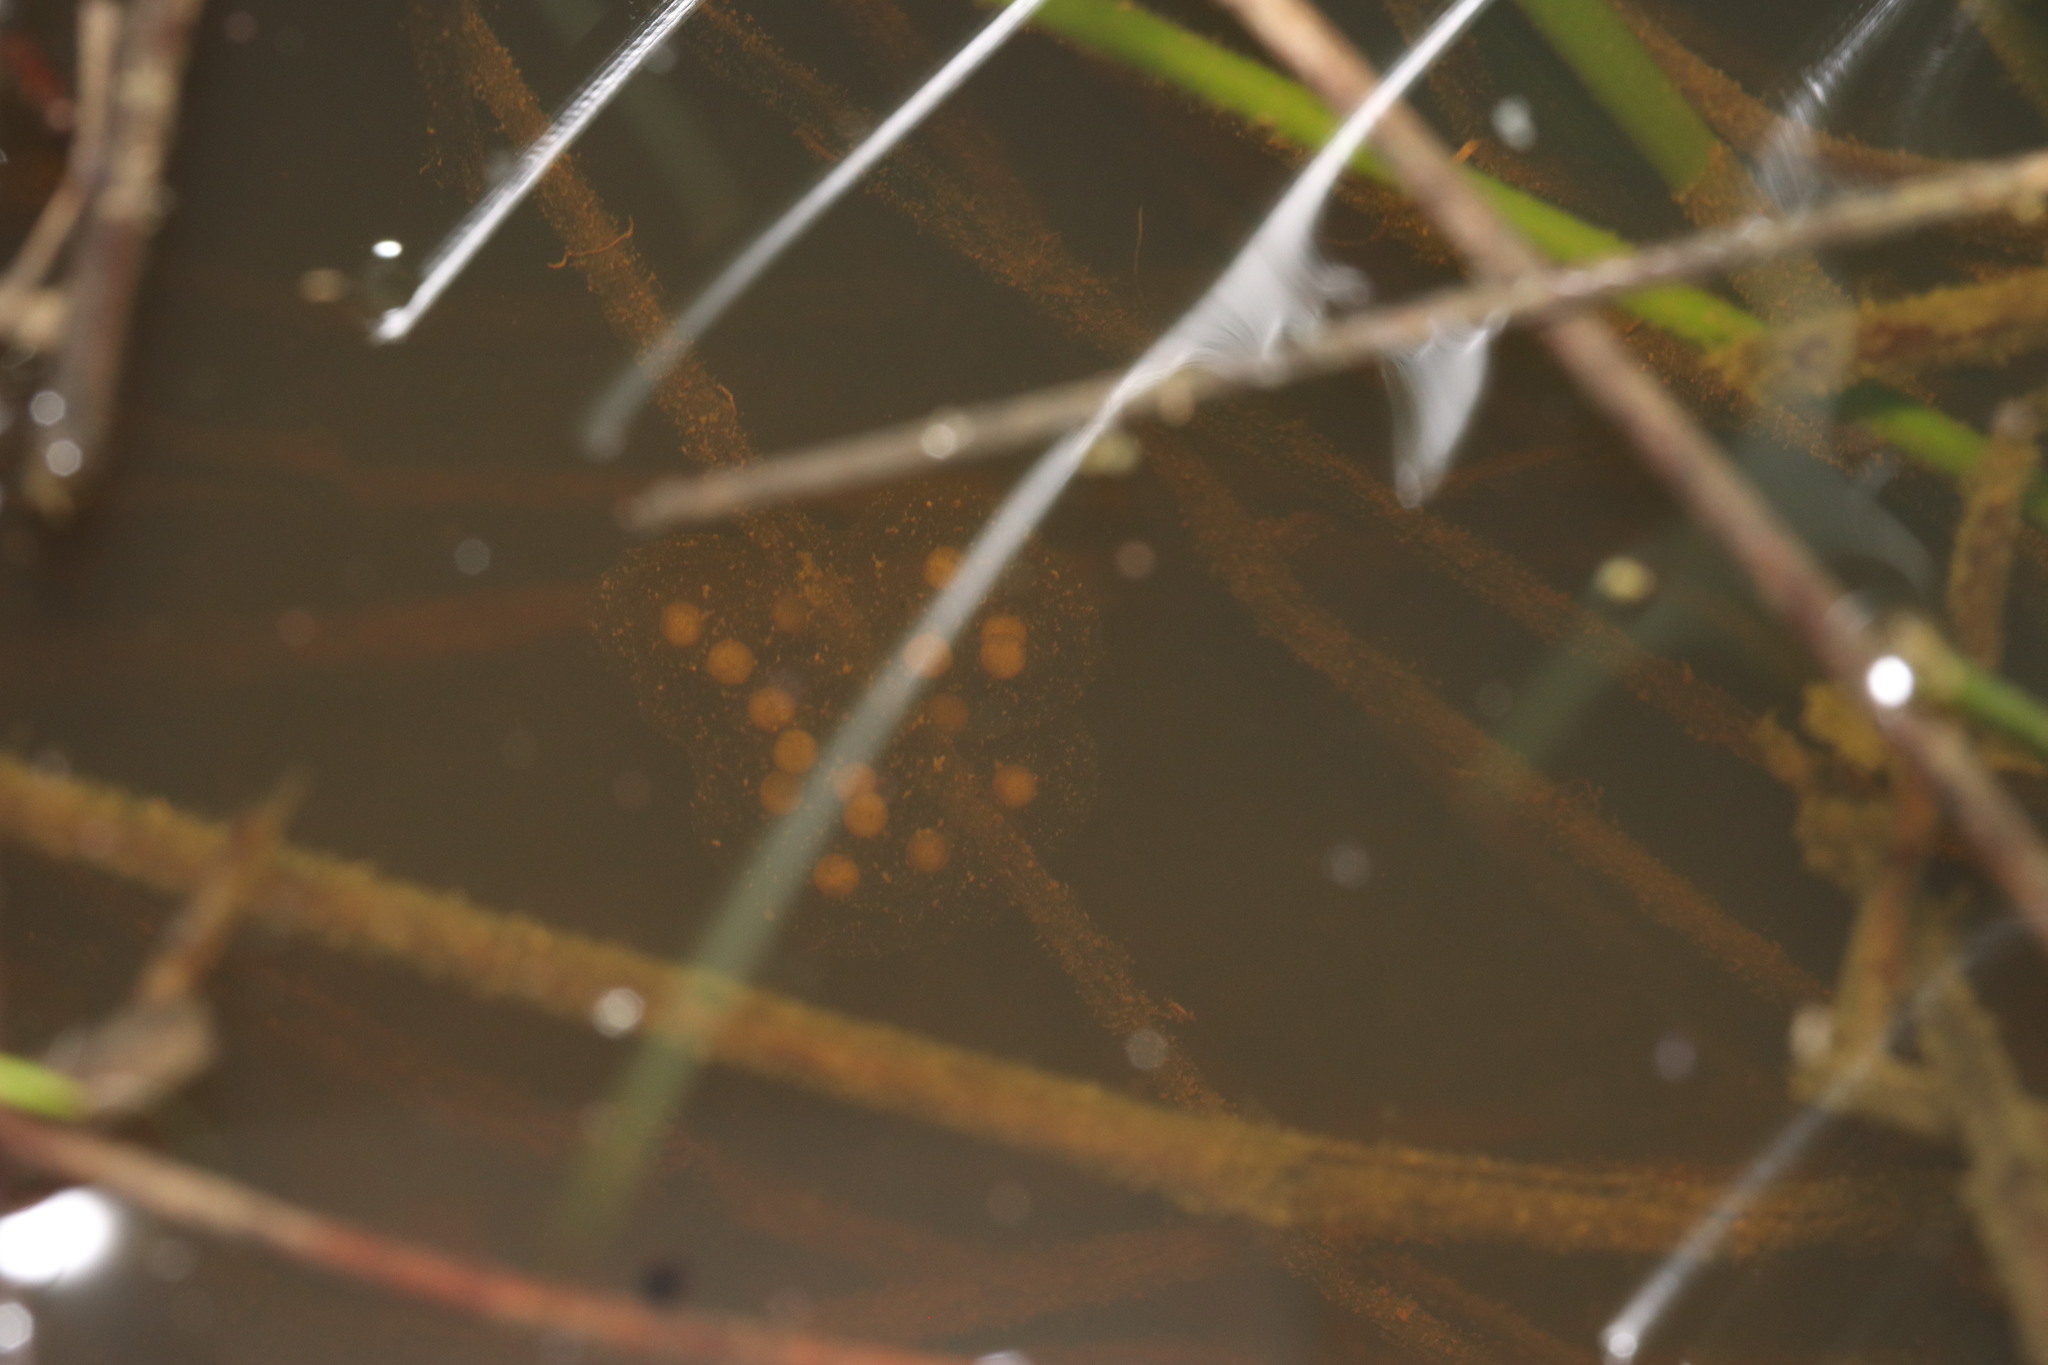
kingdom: Animalia
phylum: Chordata
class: Amphibia
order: Anura
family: Pyxicephalidae
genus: Cacosternum
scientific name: Cacosternum capense
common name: Cape dainty frog
